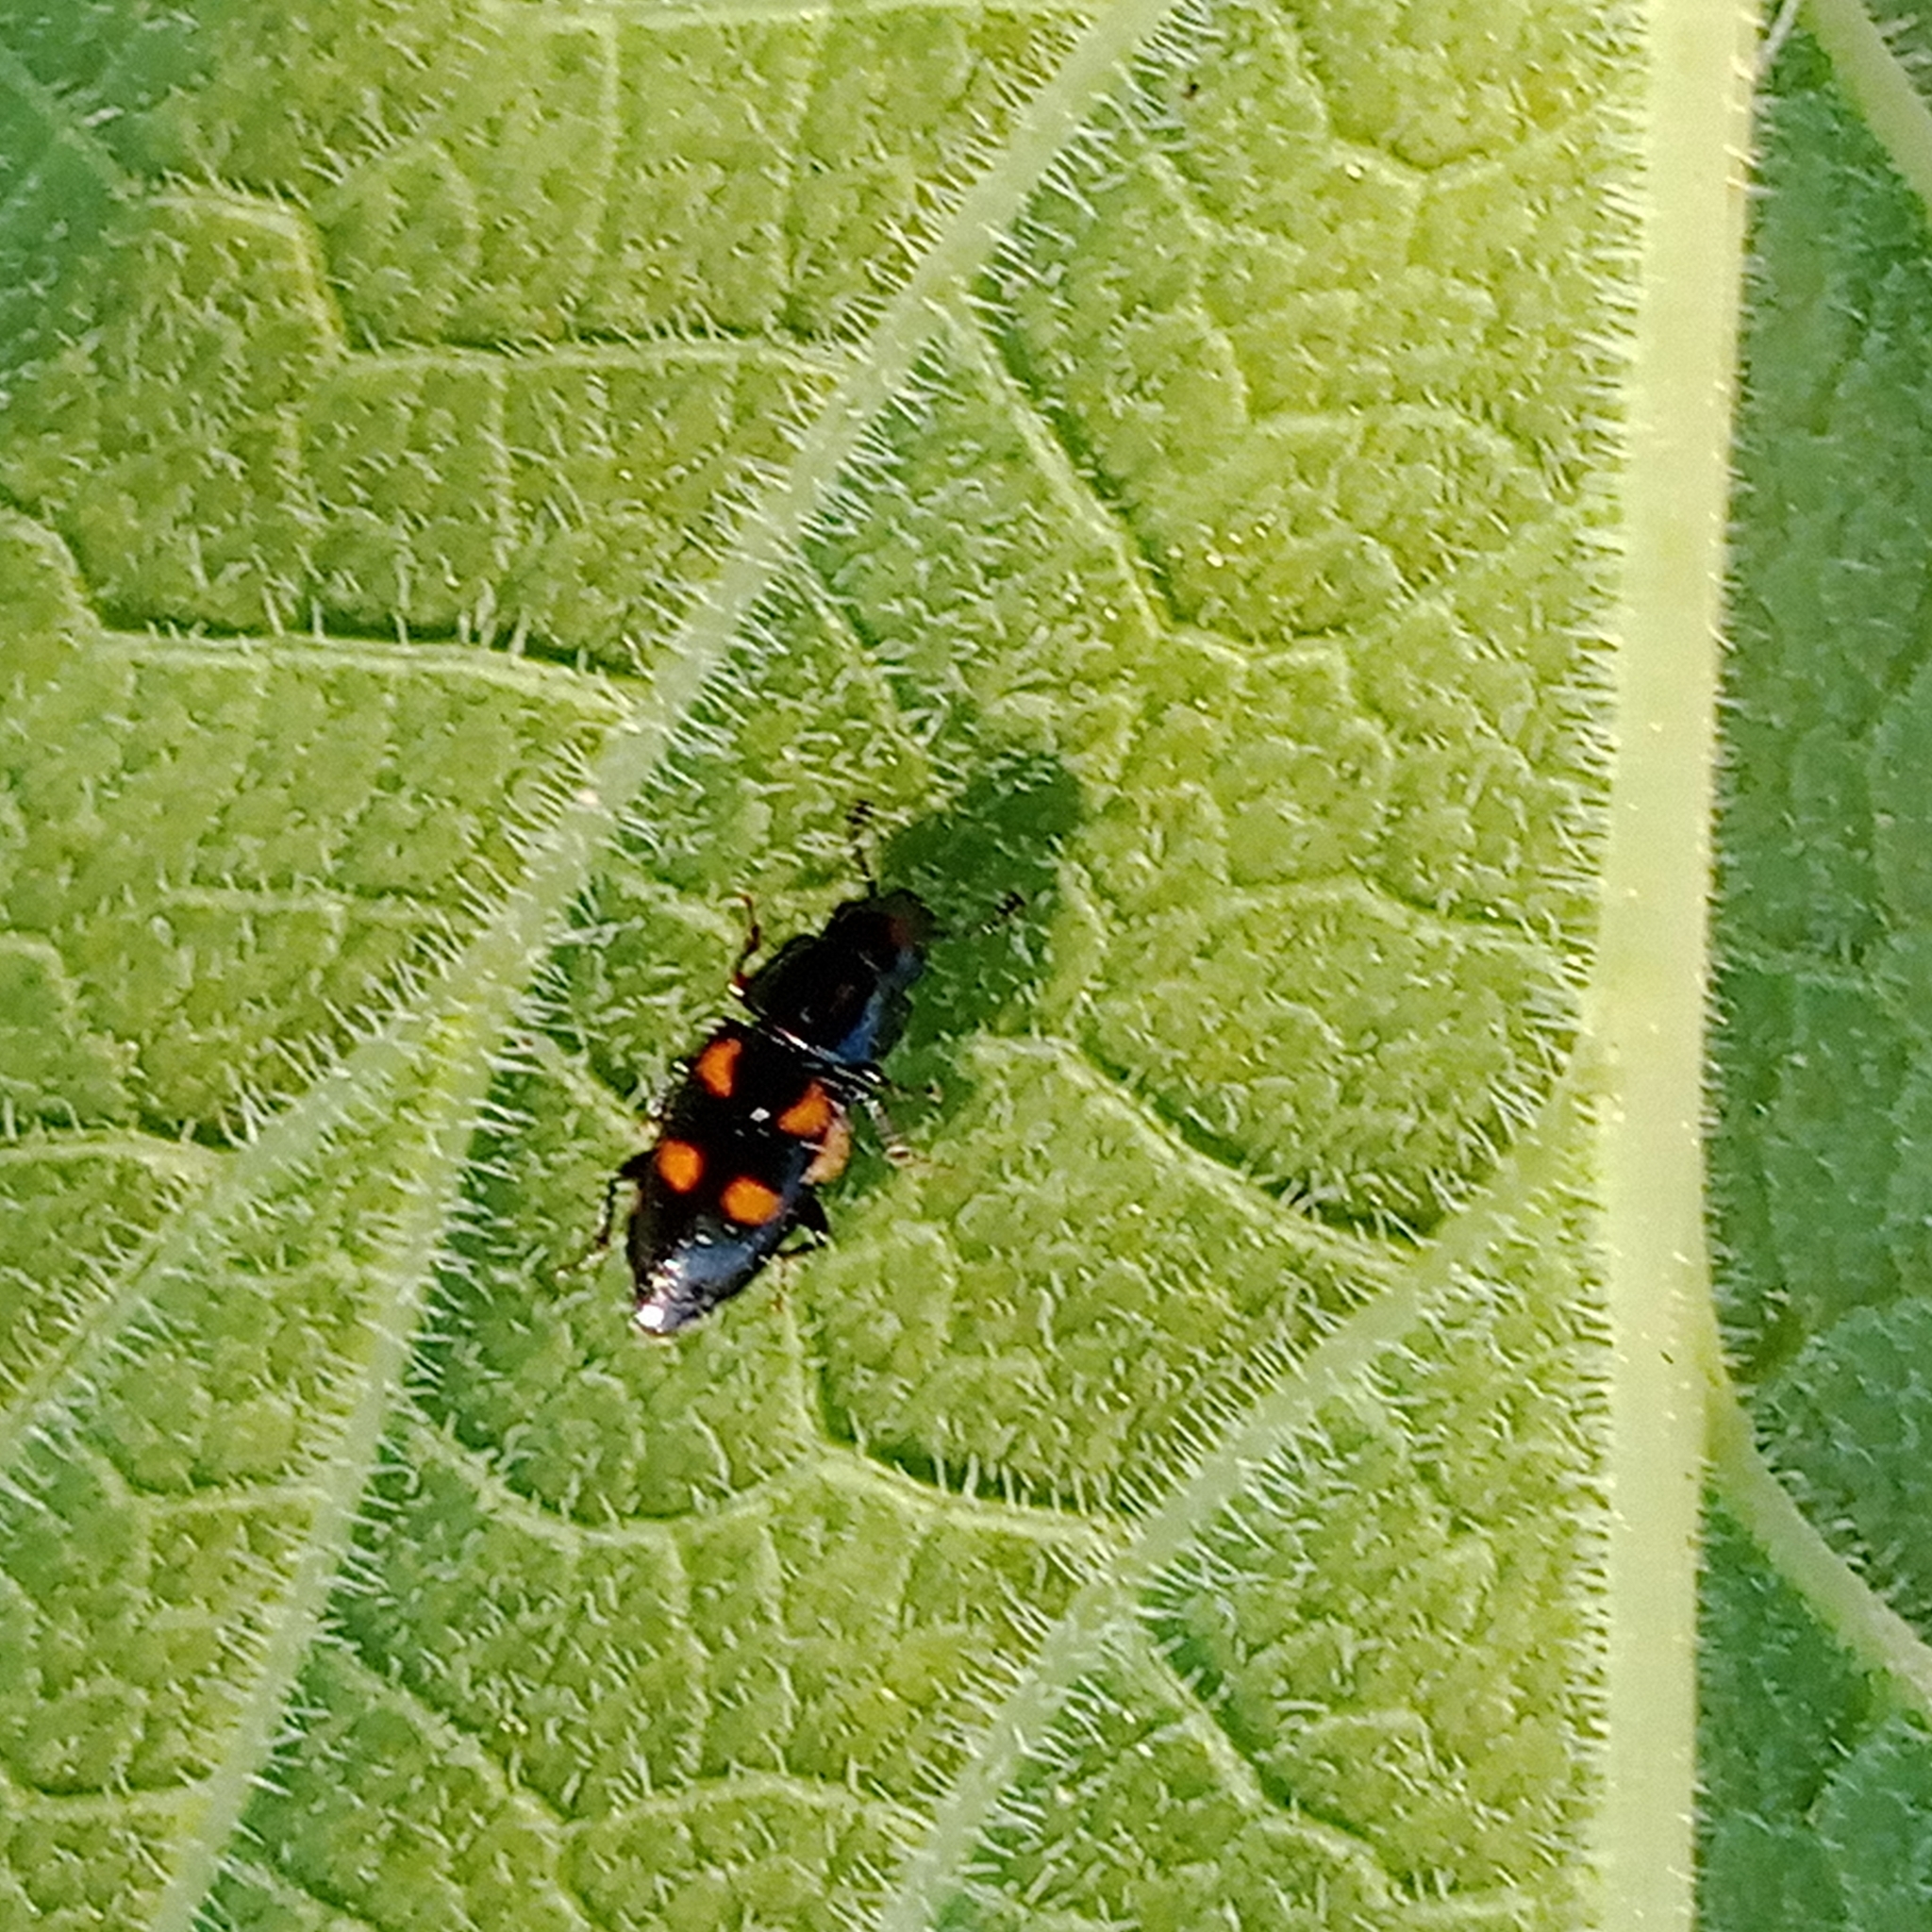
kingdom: Animalia
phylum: Arthropoda
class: Insecta
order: Coleoptera
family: Nitidulidae
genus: Glischrochilus
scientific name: Glischrochilus quadripunctatus
